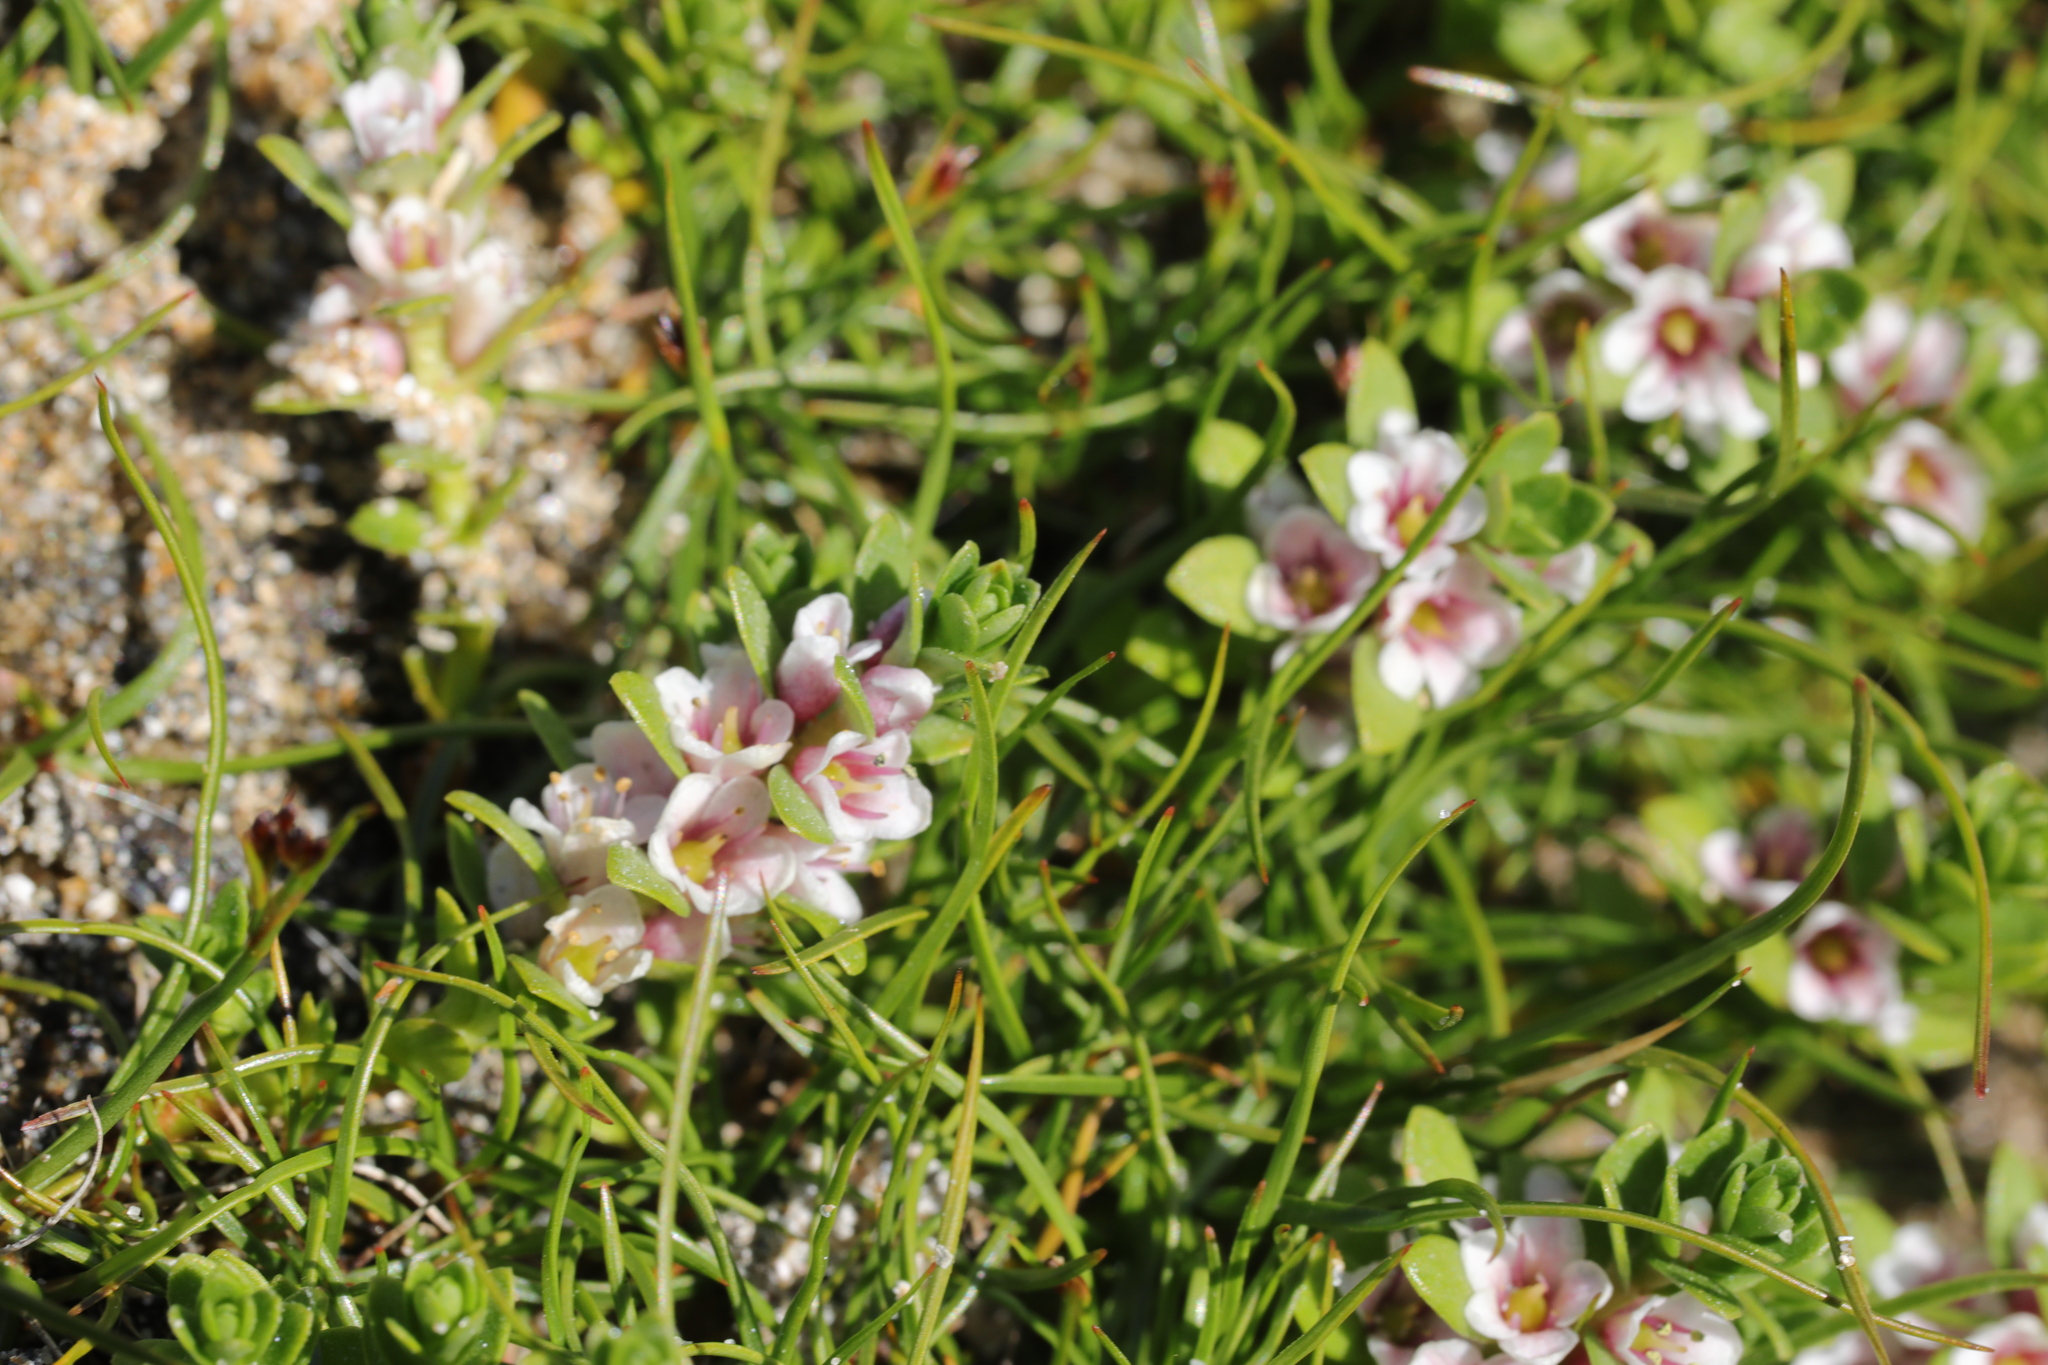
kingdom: Plantae
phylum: Tracheophyta
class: Magnoliopsida
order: Ericales
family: Primulaceae
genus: Lysimachia
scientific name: Lysimachia maritima
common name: Sea milkwort
